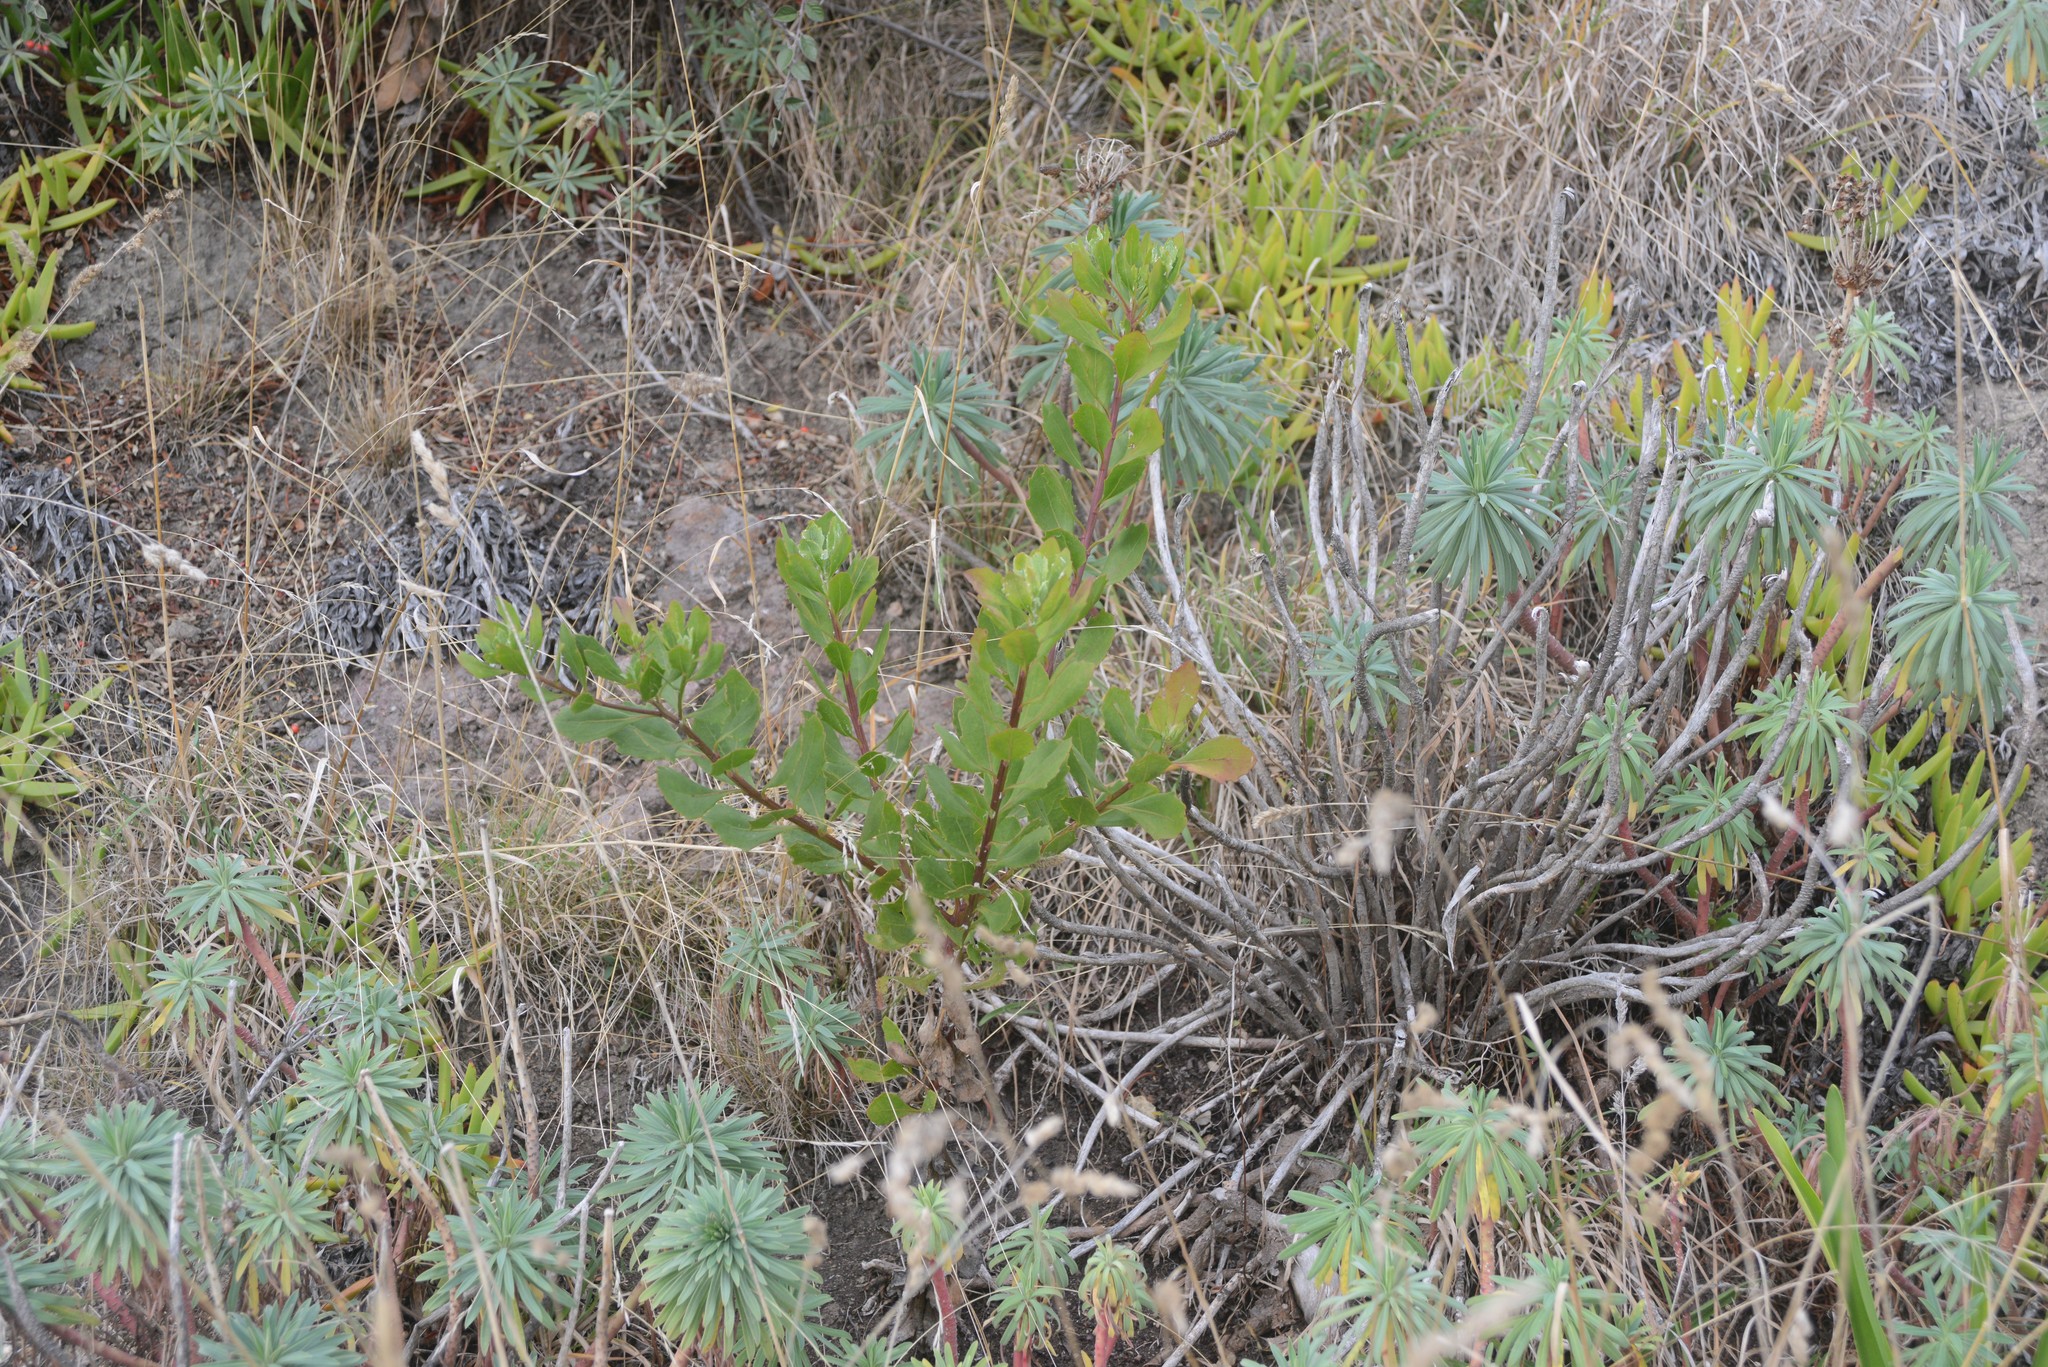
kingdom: Plantae
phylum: Tracheophyta
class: Magnoliopsida
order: Asterales
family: Asteraceae
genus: Osteospermum
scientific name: Osteospermum moniliferum
